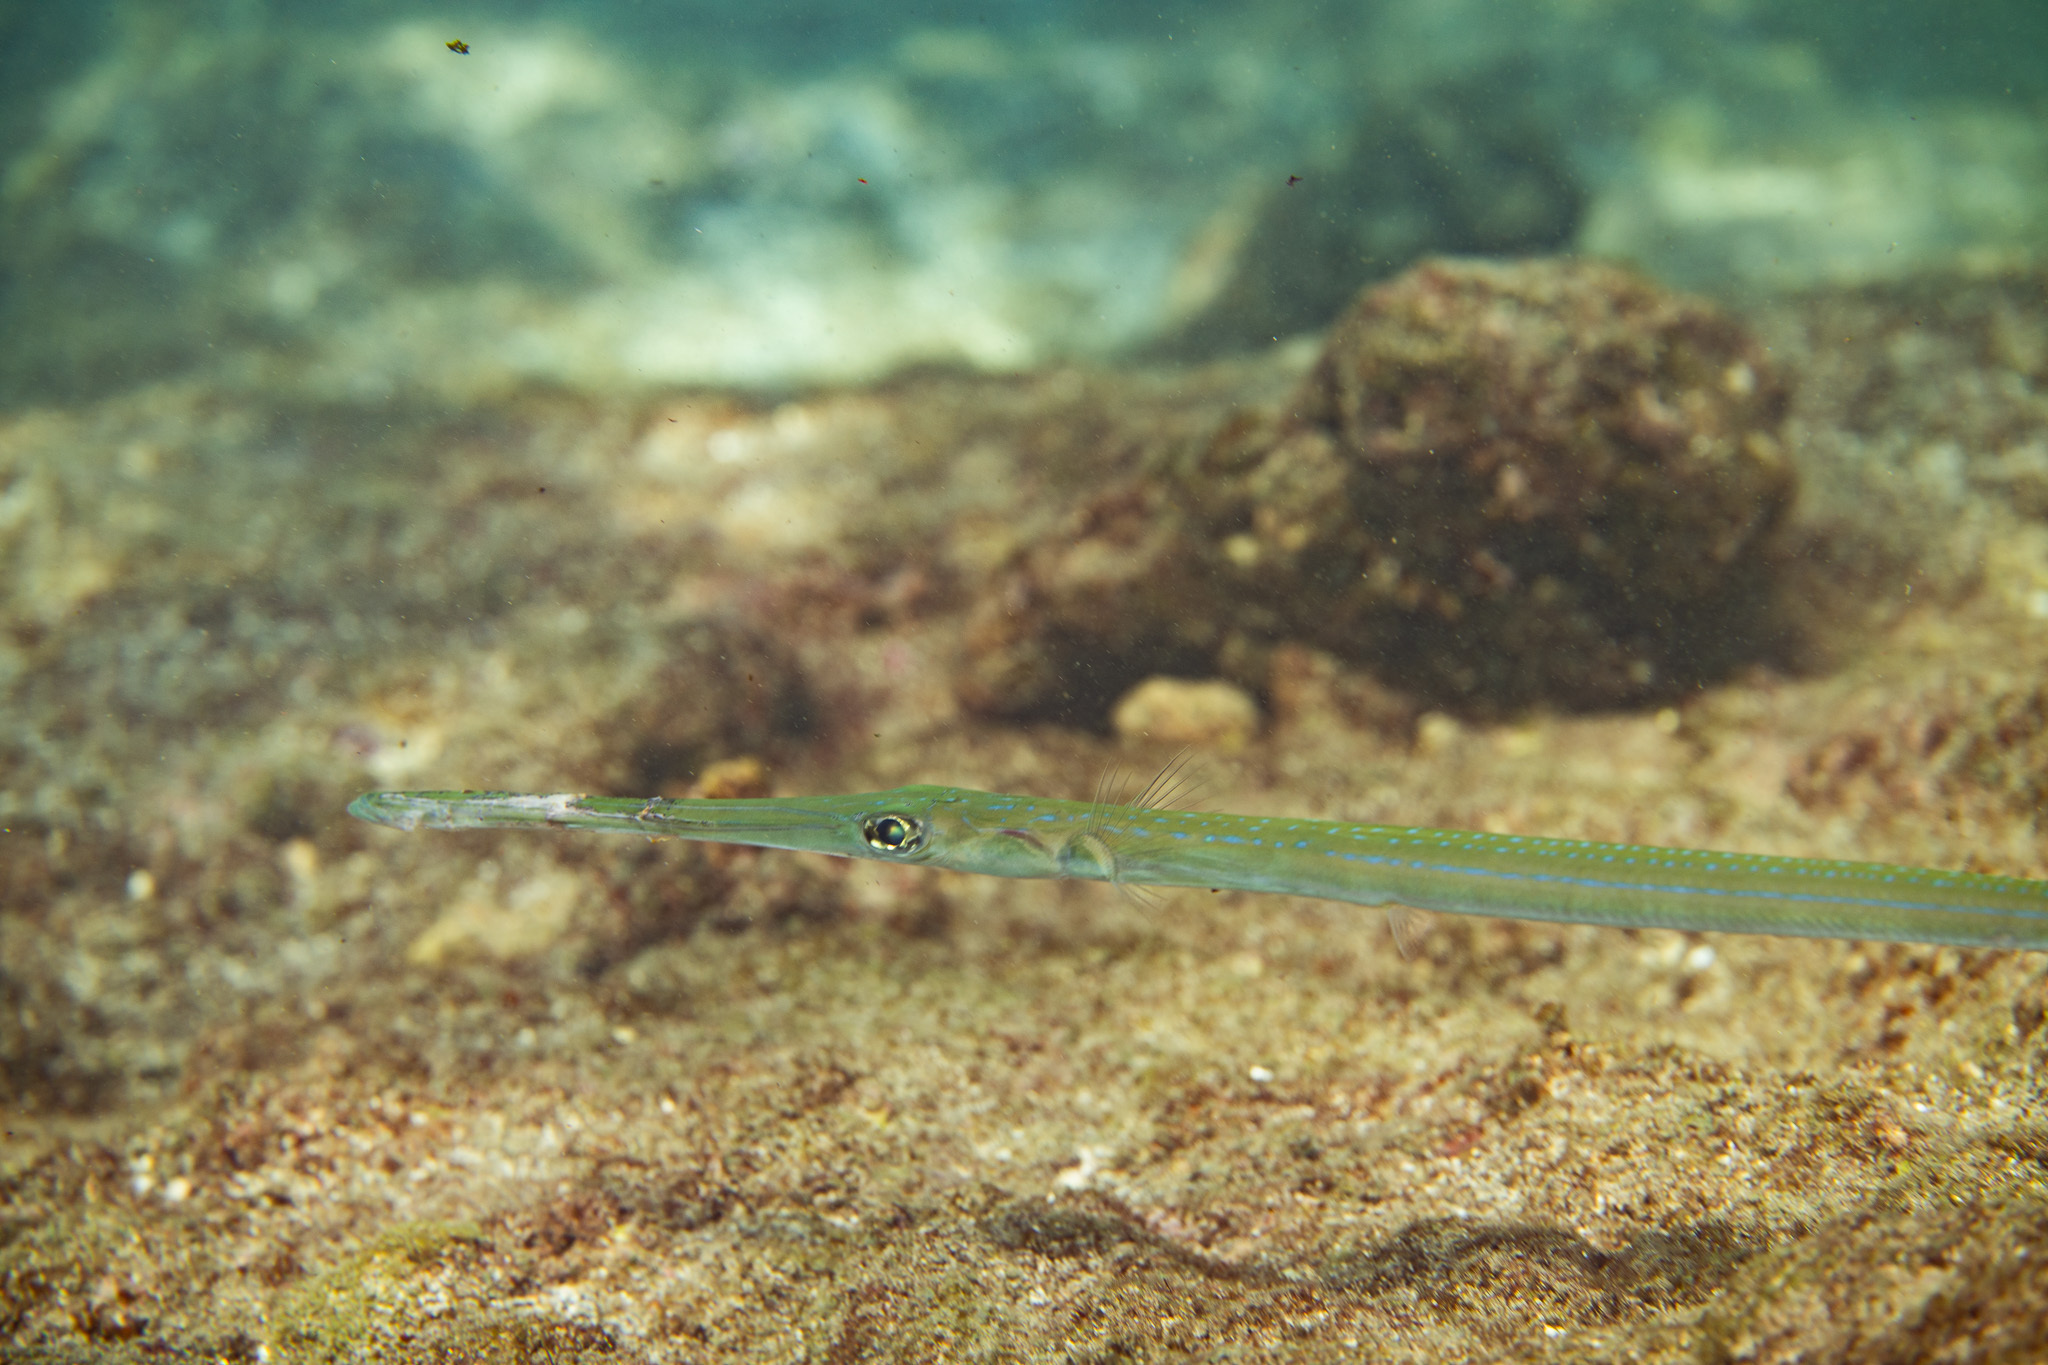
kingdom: Animalia
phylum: Chordata
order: Syngnathiformes
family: Fistulariidae
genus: Fistularia
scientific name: Fistularia commersonii
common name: Bluespotted cornetfish
